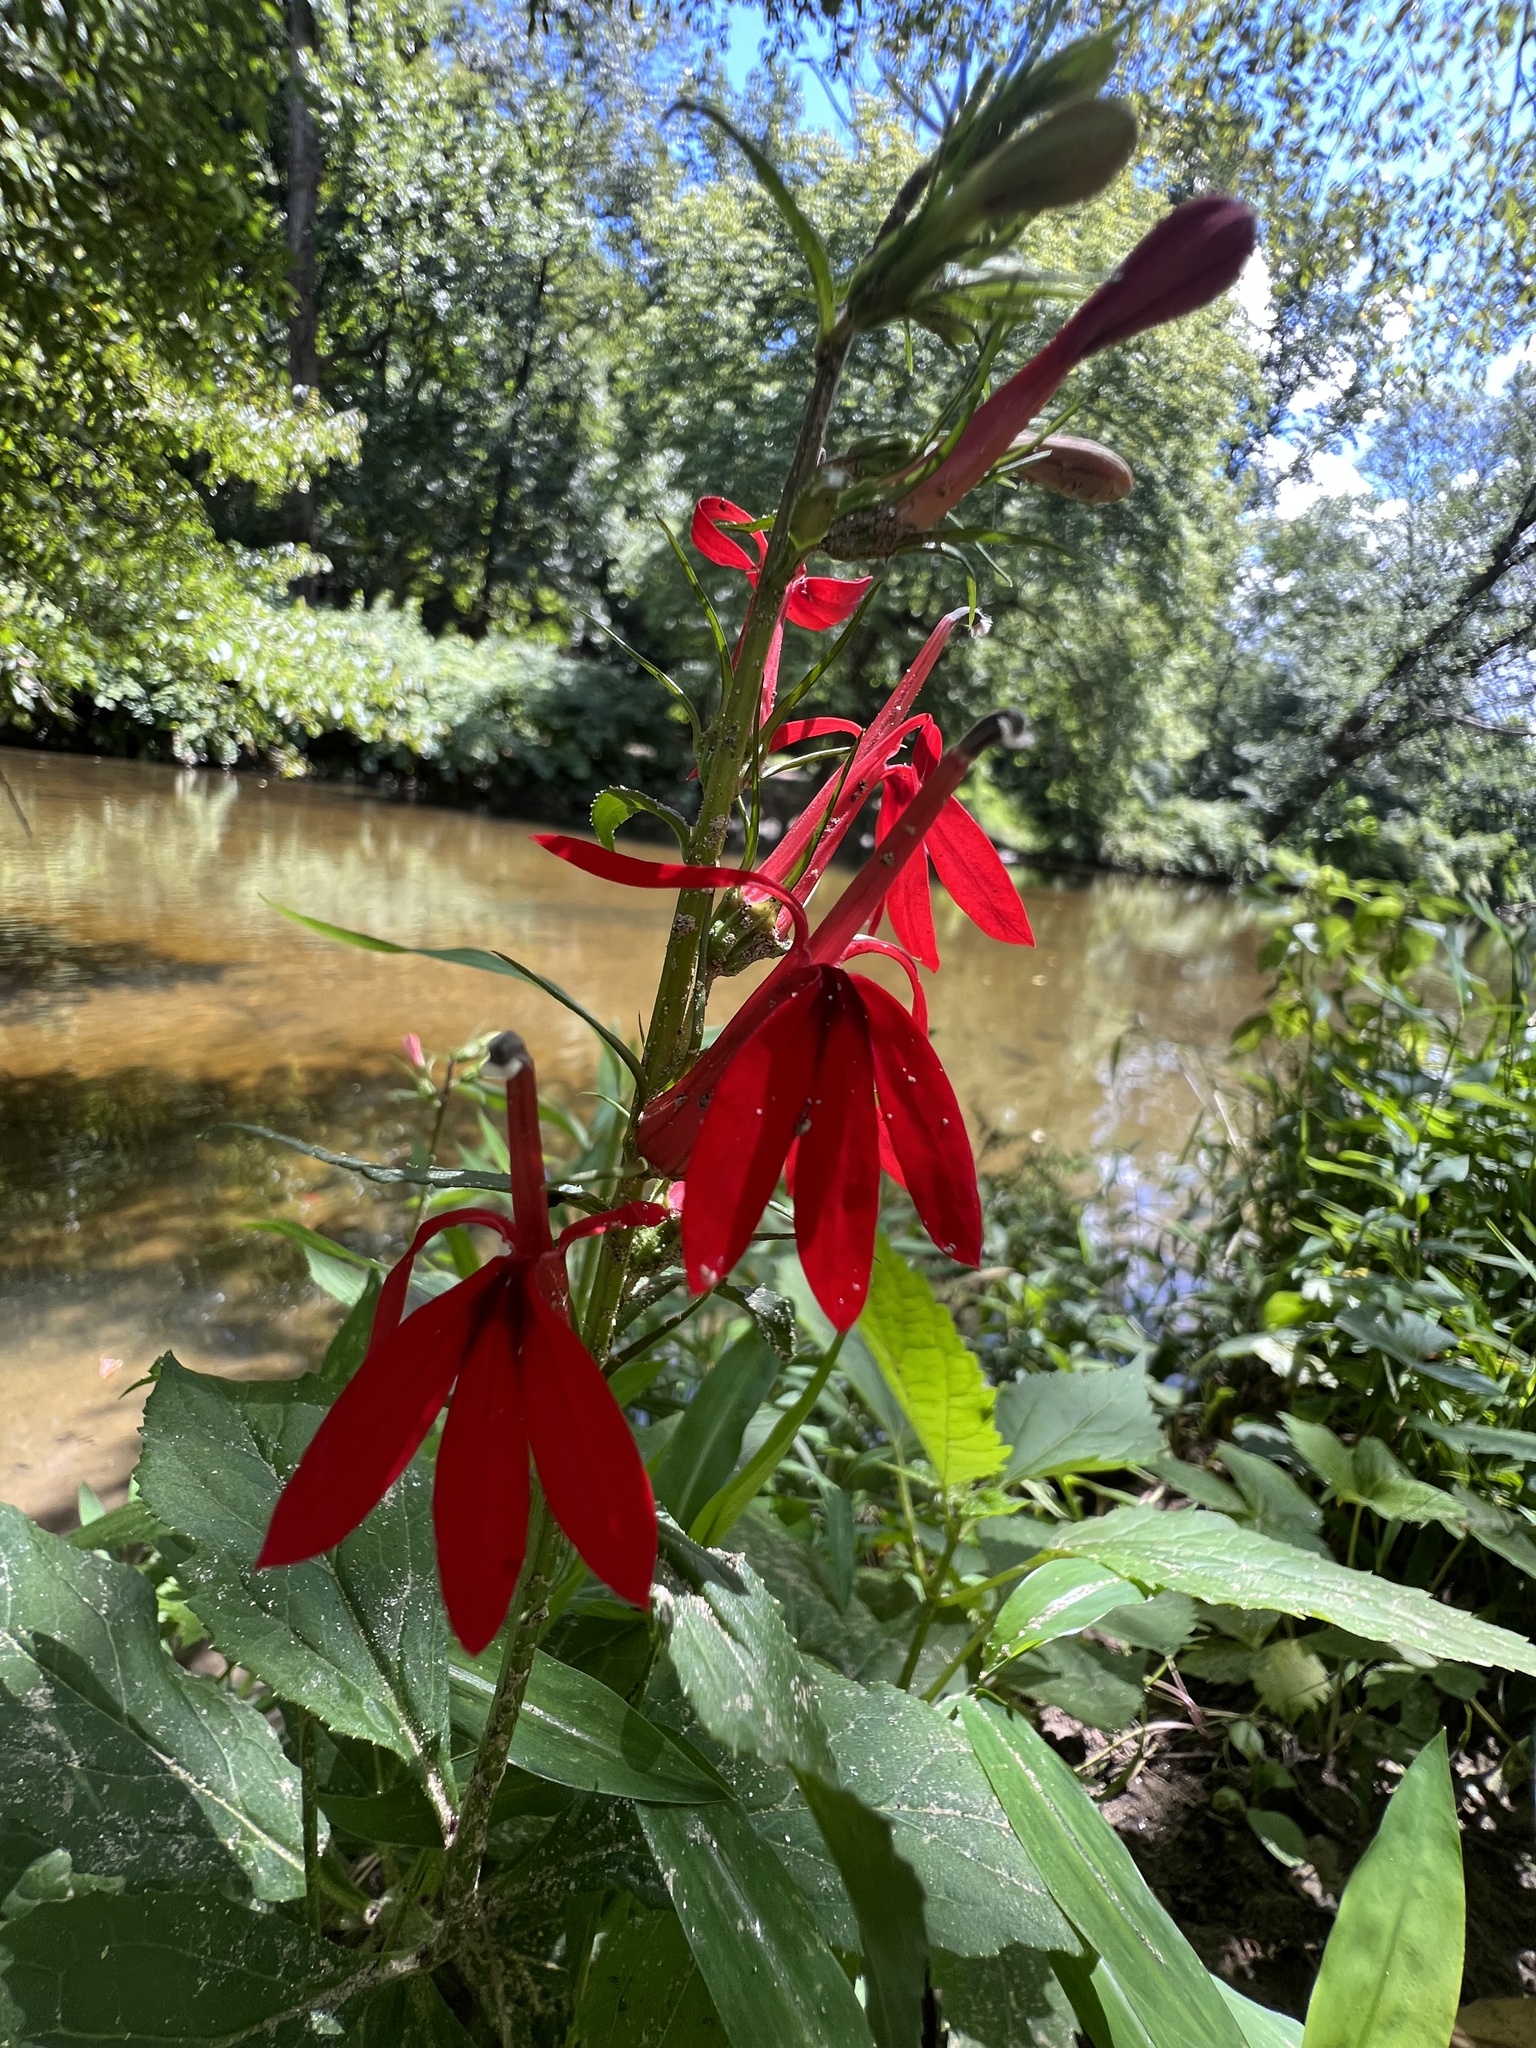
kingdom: Plantae
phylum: Tracheophyta
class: Magnoliopsida
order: Asterales
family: Campanulaceae
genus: Lobelia
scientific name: Lobelia cardinalis
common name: Cardinal flower
